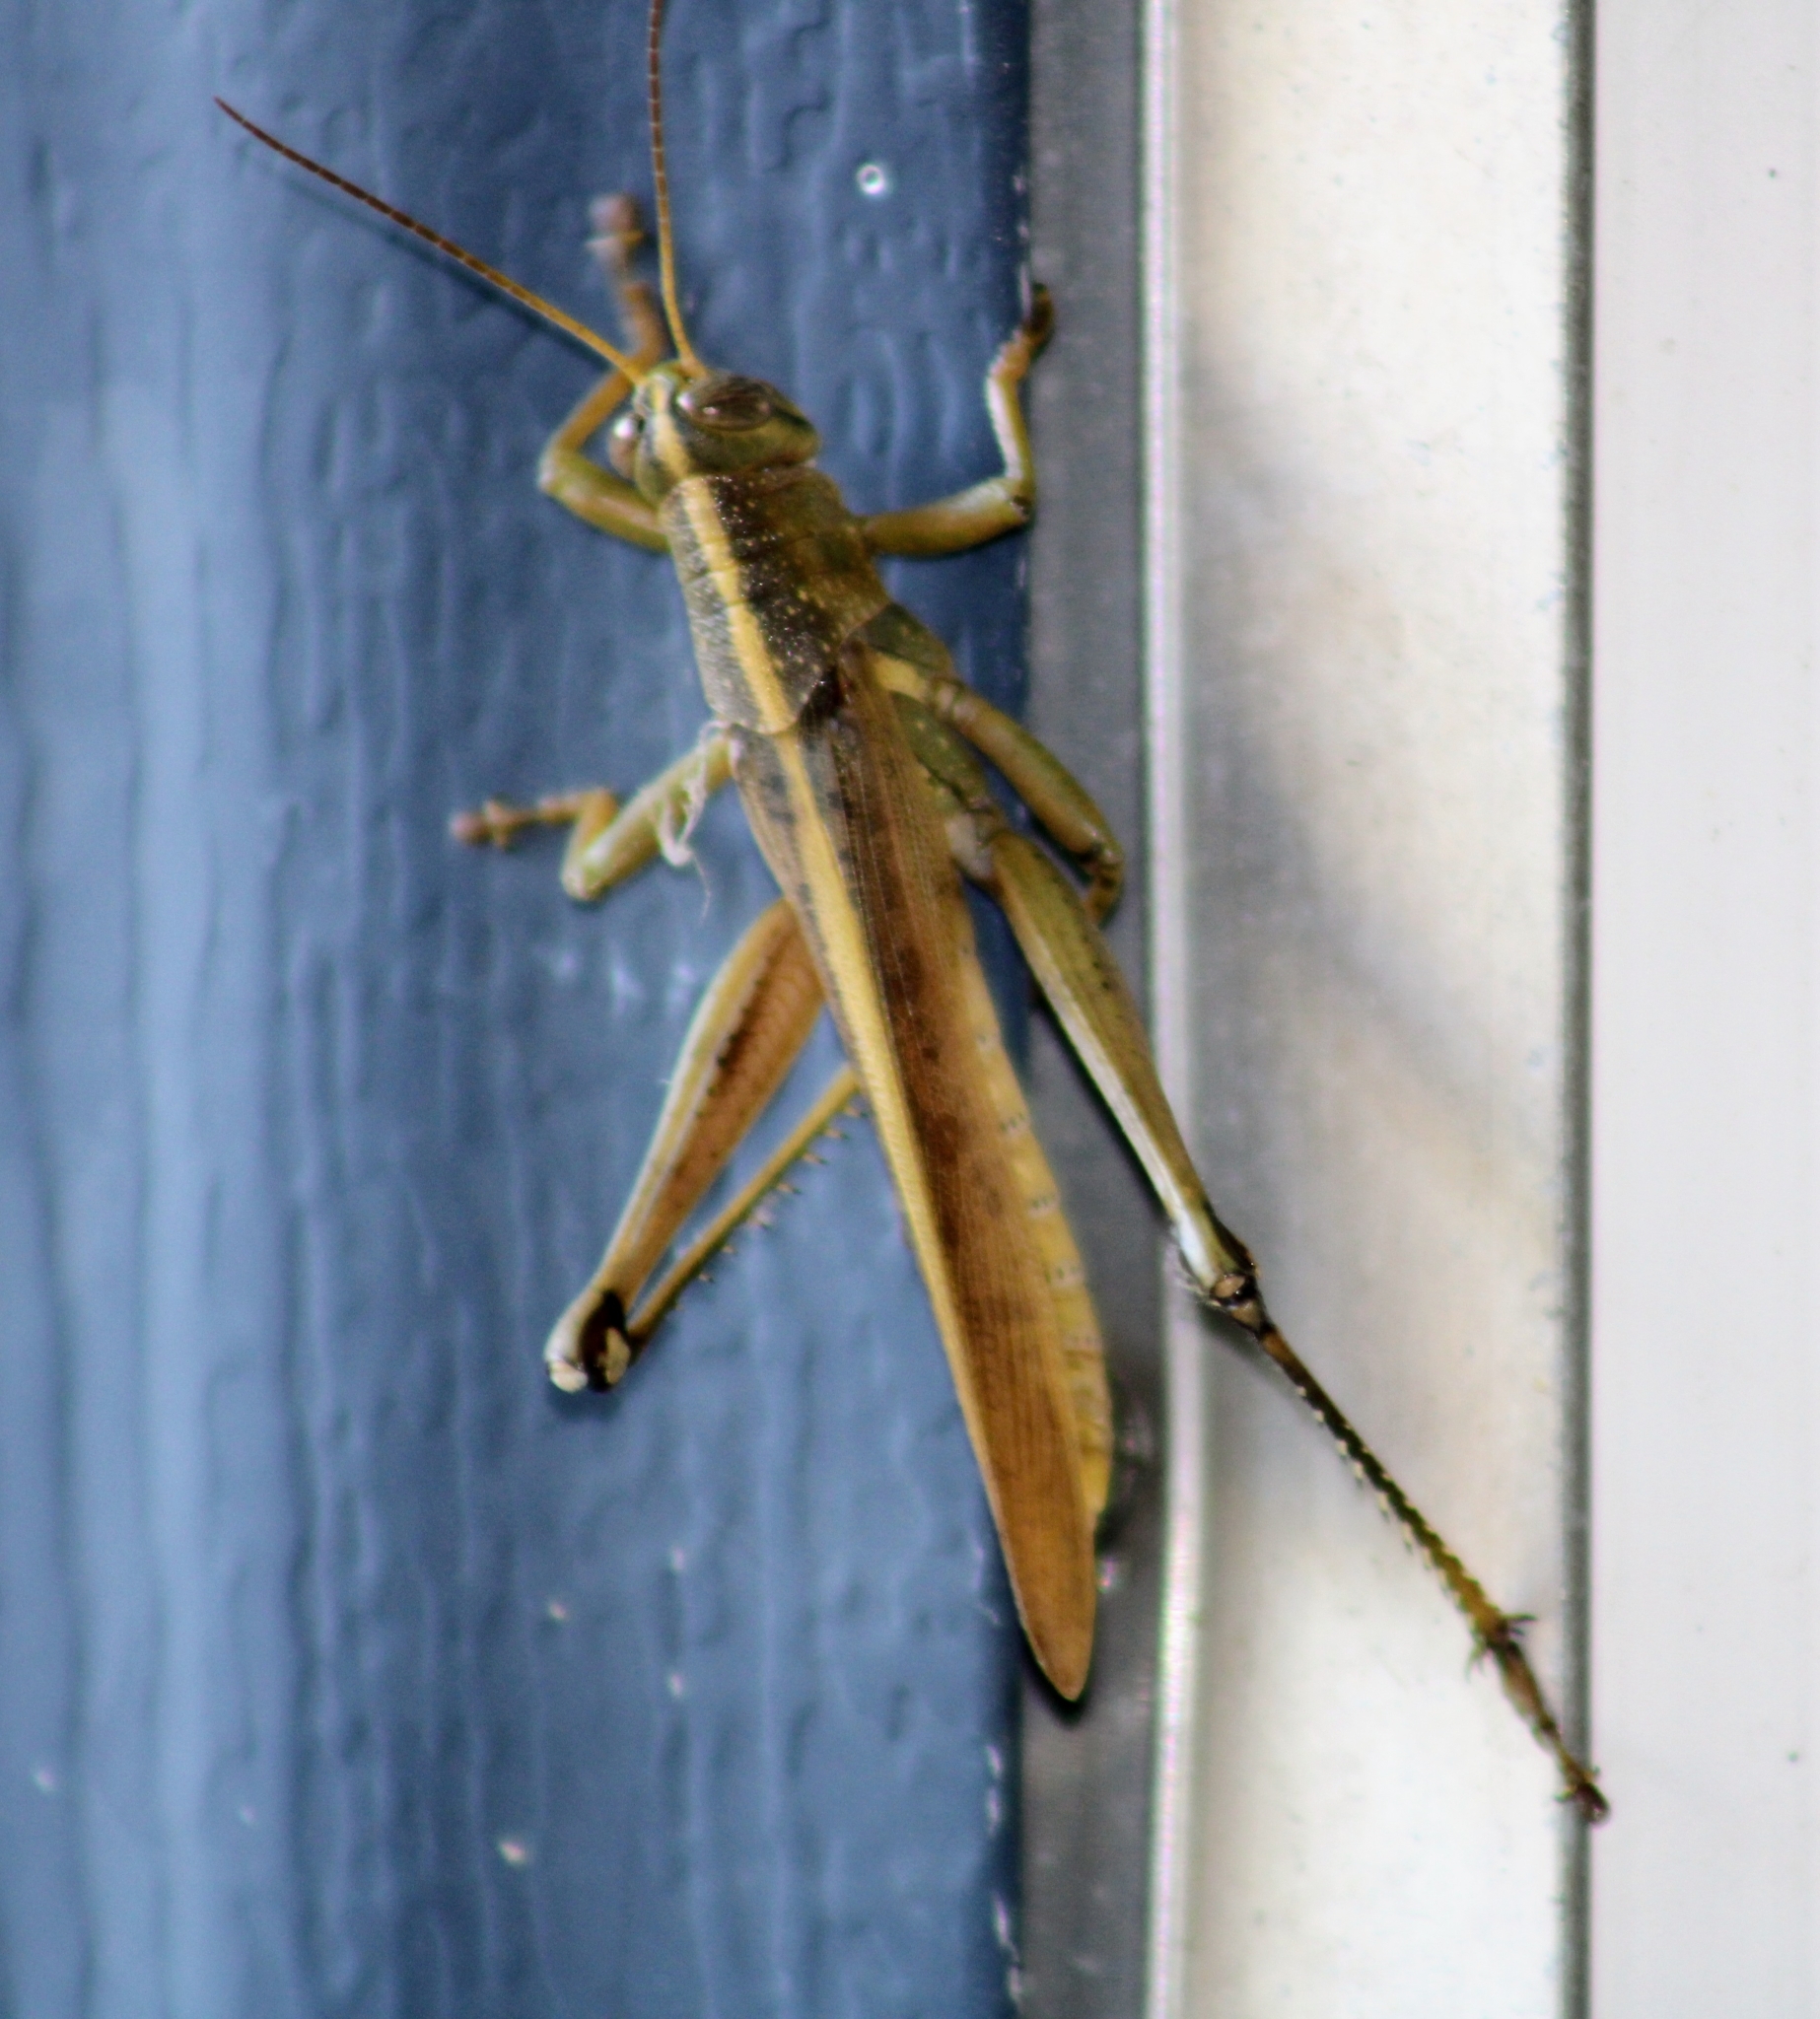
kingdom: Animalia
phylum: Arthropoda
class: Insecta
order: Orthoptera
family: Acrididae
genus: Schistocerca
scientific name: Schistocerca lineata
